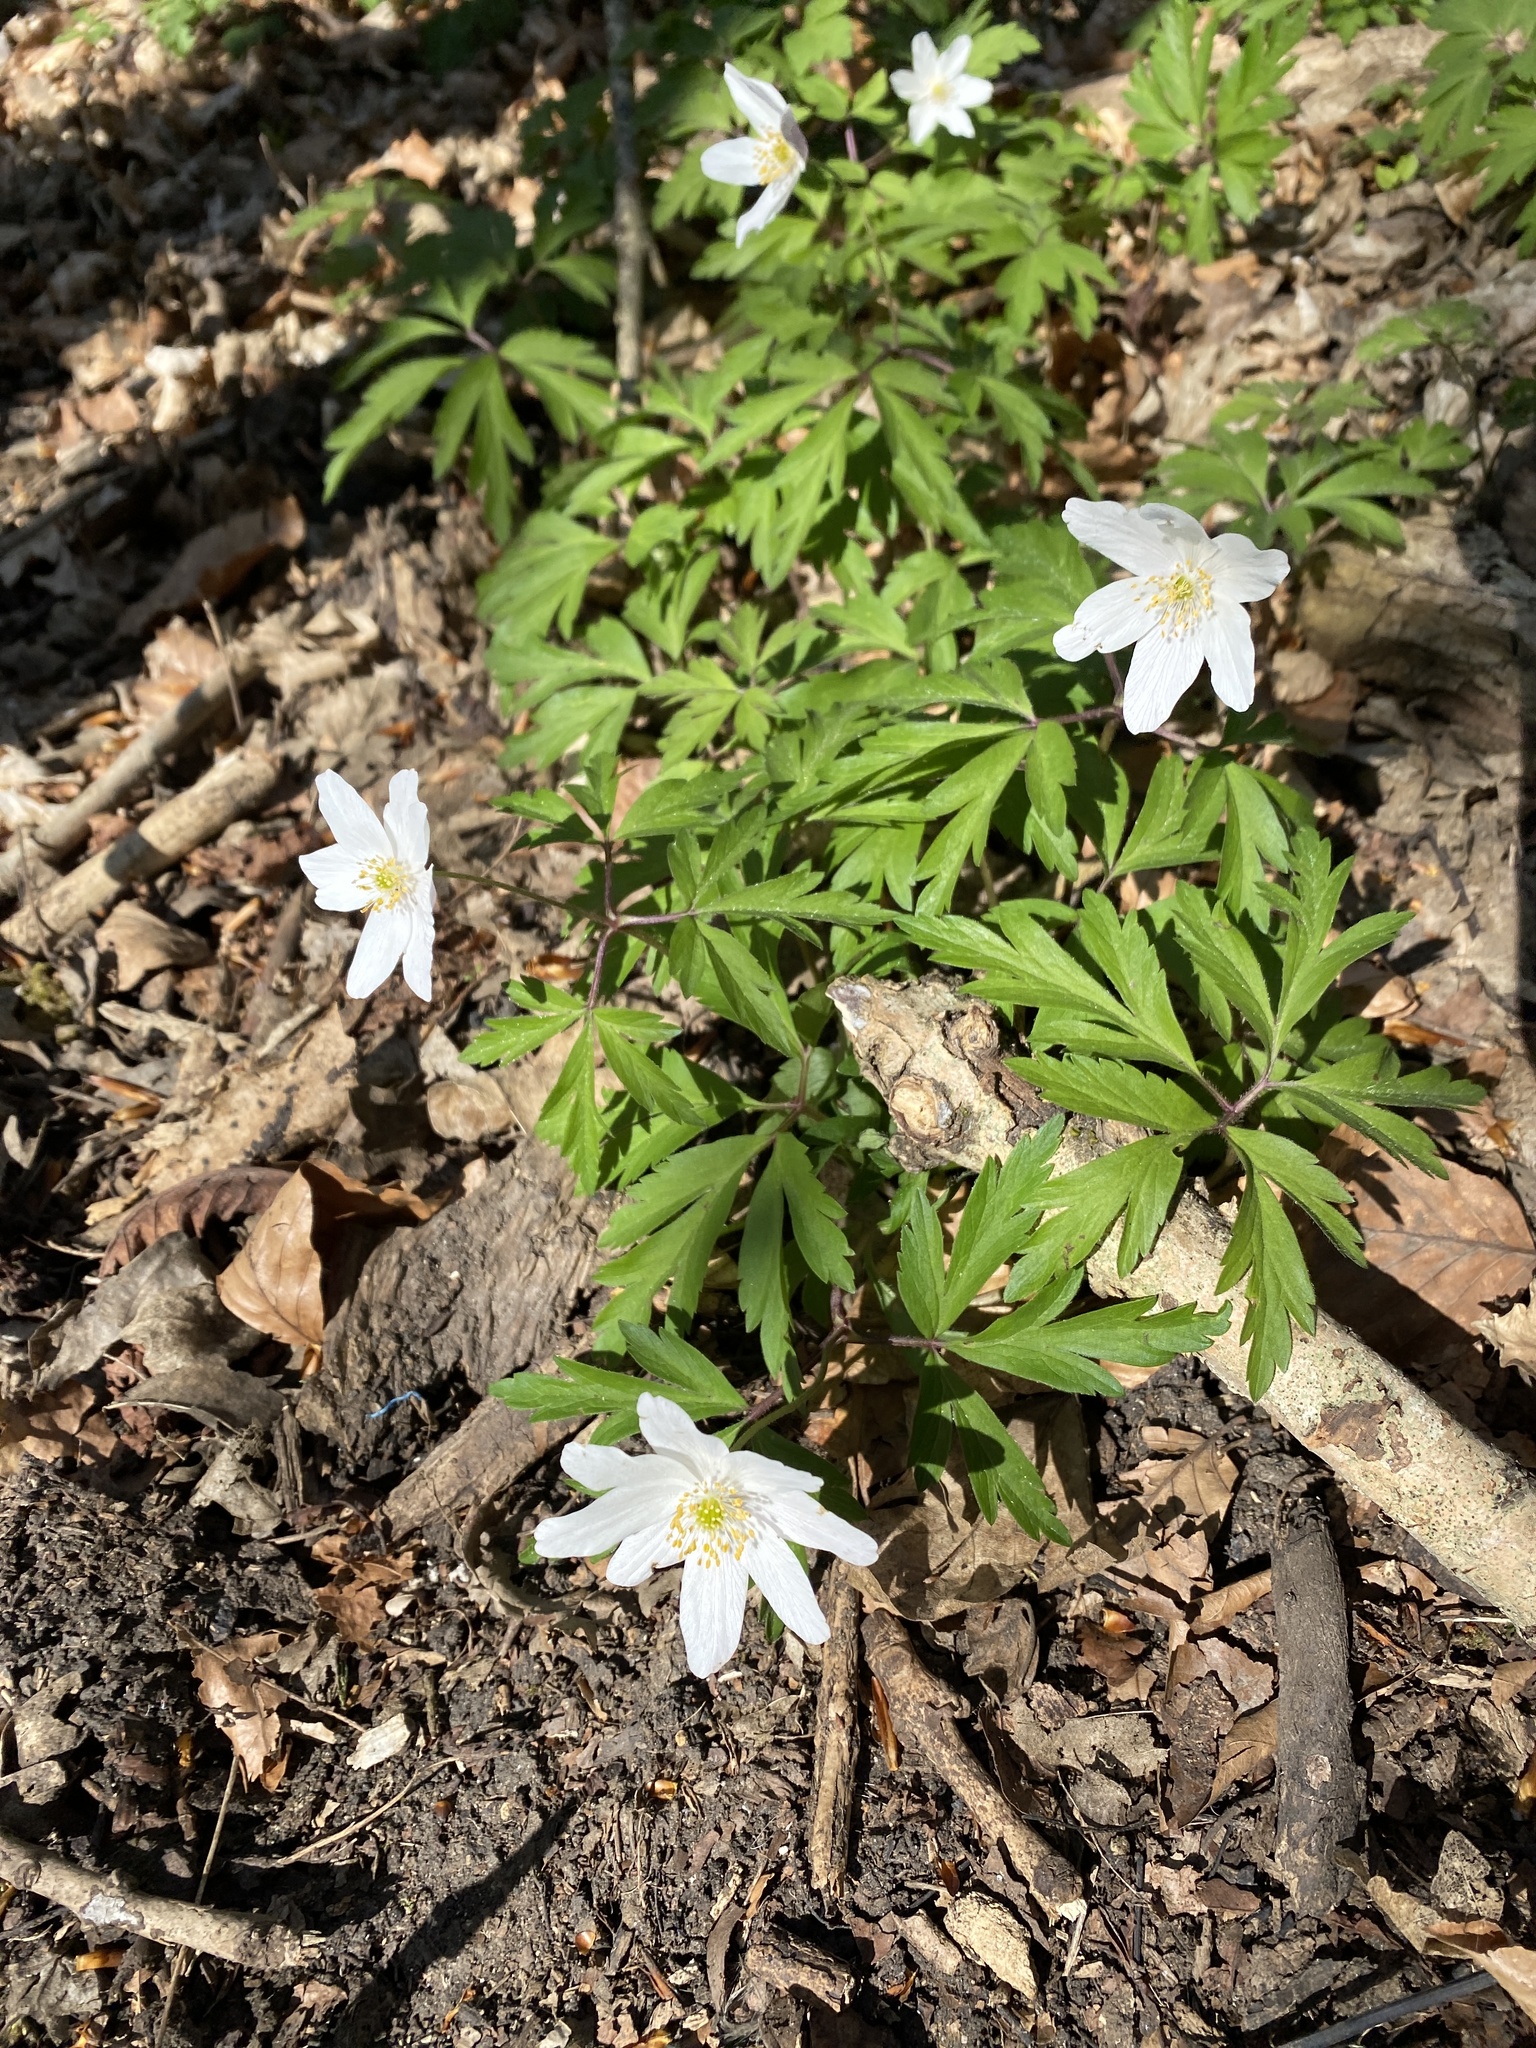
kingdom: Plantae
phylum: Tracheophyta
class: Magnoliopsida
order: Ranunculales
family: Ranunculaceae
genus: Anemone
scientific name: Anemone nemorosa
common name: Wood anemone
